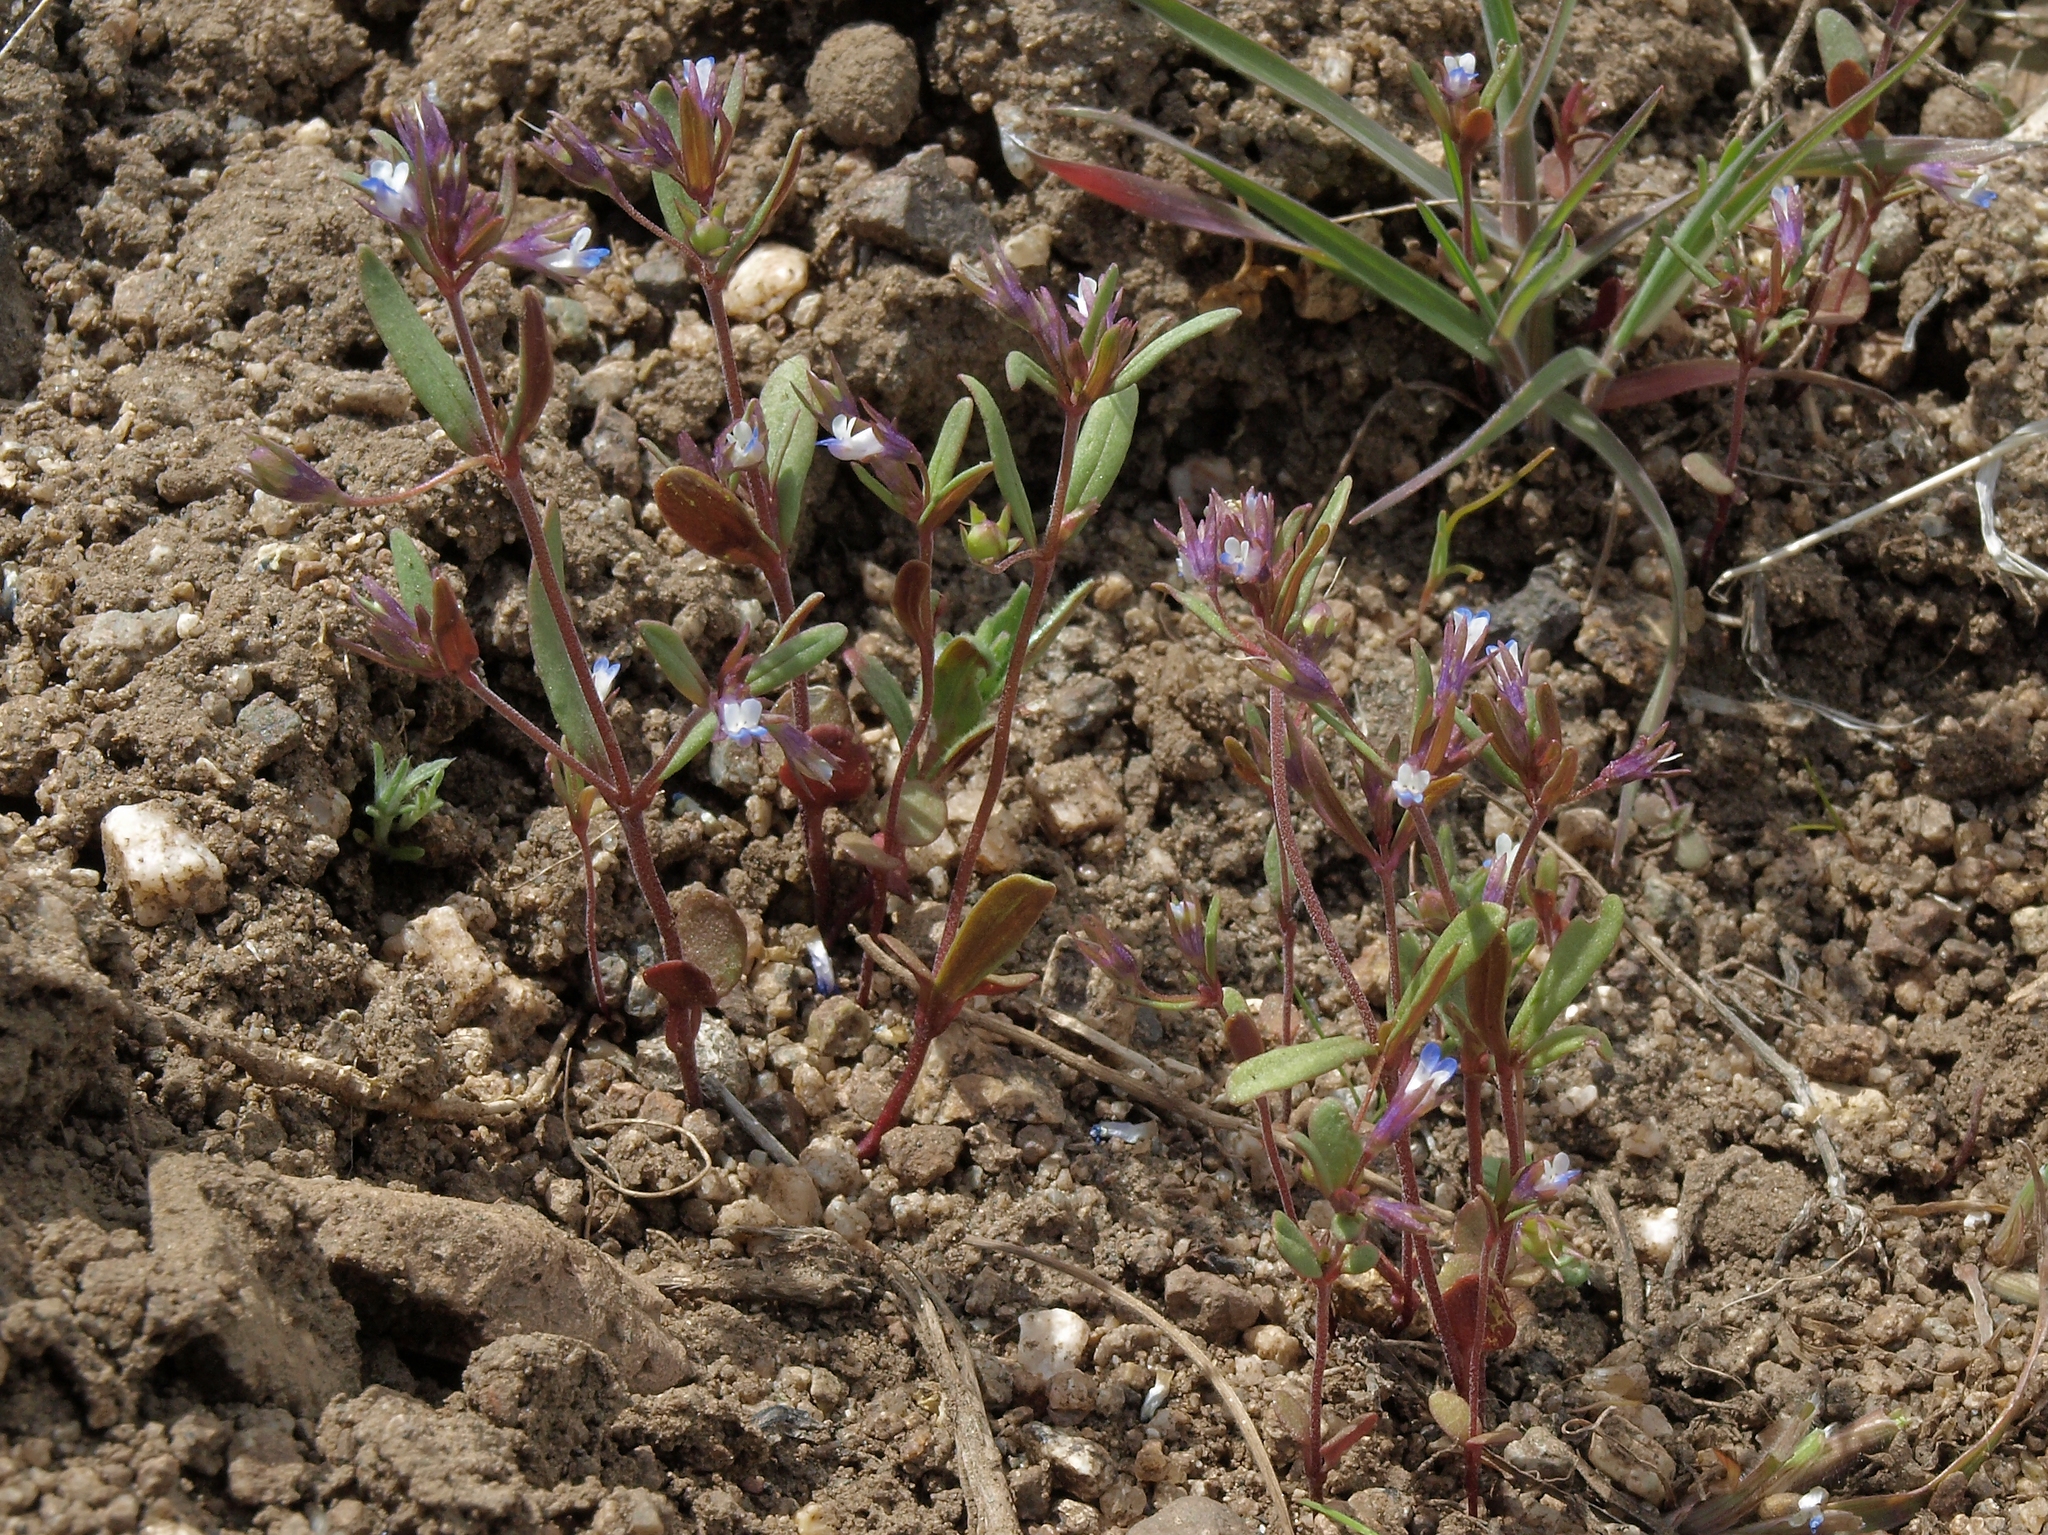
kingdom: Plantae
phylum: Tracheophyta
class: Magnoliopsida
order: Lamiales
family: Plantaginaceae
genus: Collinsia
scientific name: Collinsia parviflora
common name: Blue-lips
